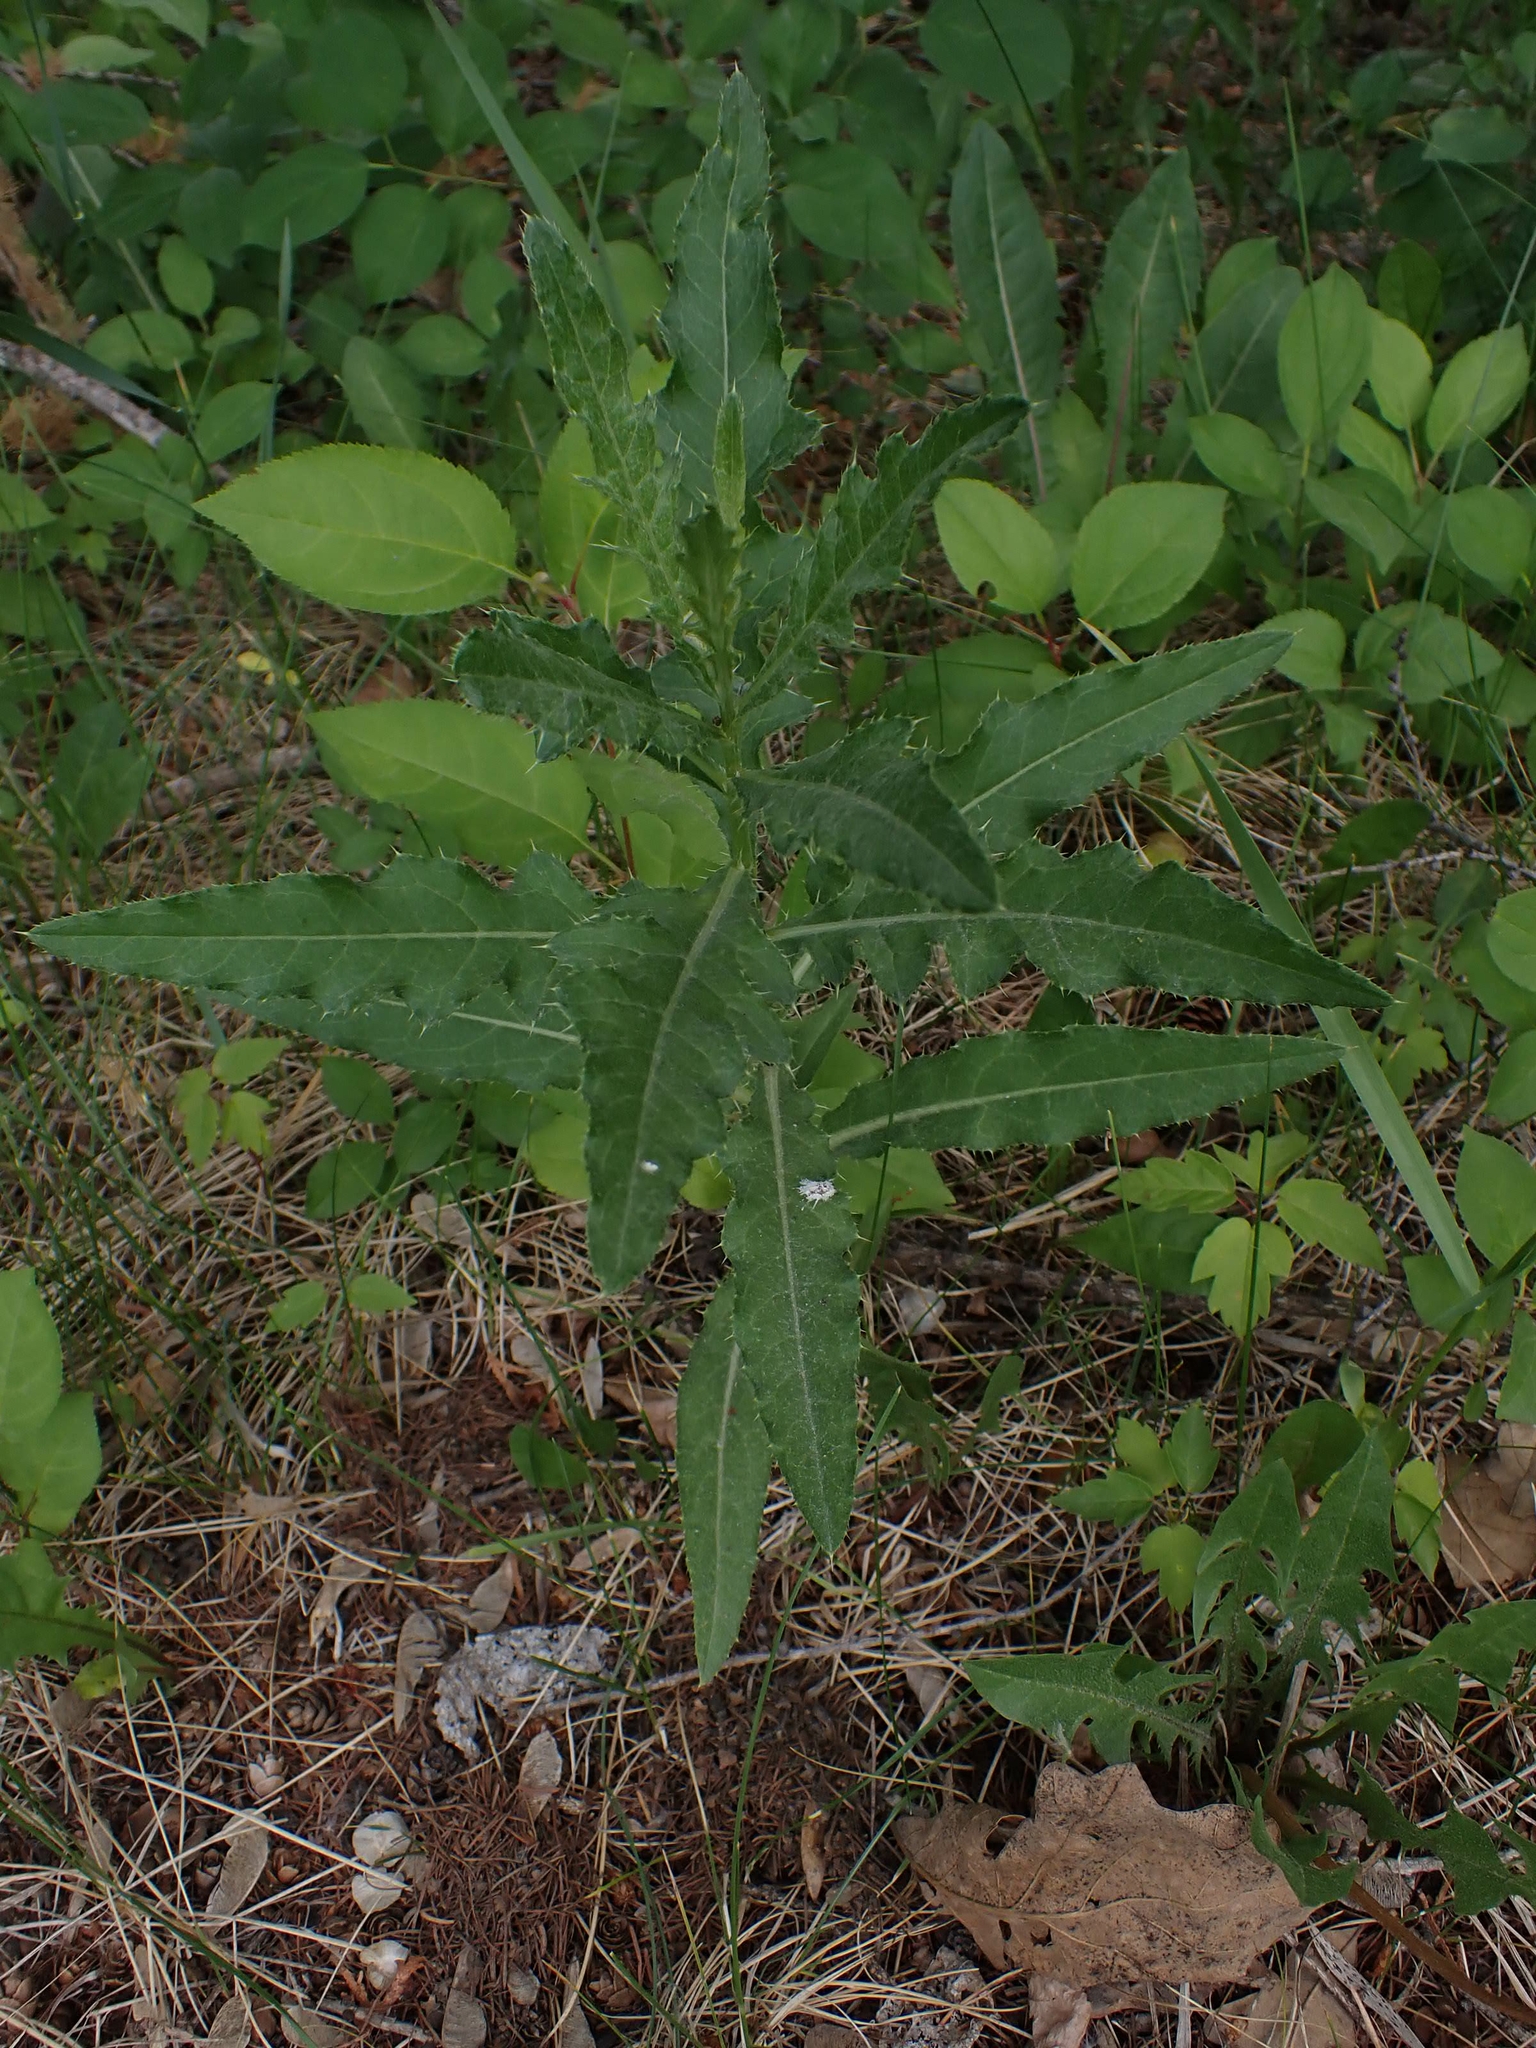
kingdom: Plantae
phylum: Tracheophyta
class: Magnoliopsida
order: Asterales
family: Asteraceae
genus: Cirsium
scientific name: Cirsium arvense
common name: Creeping thistle
